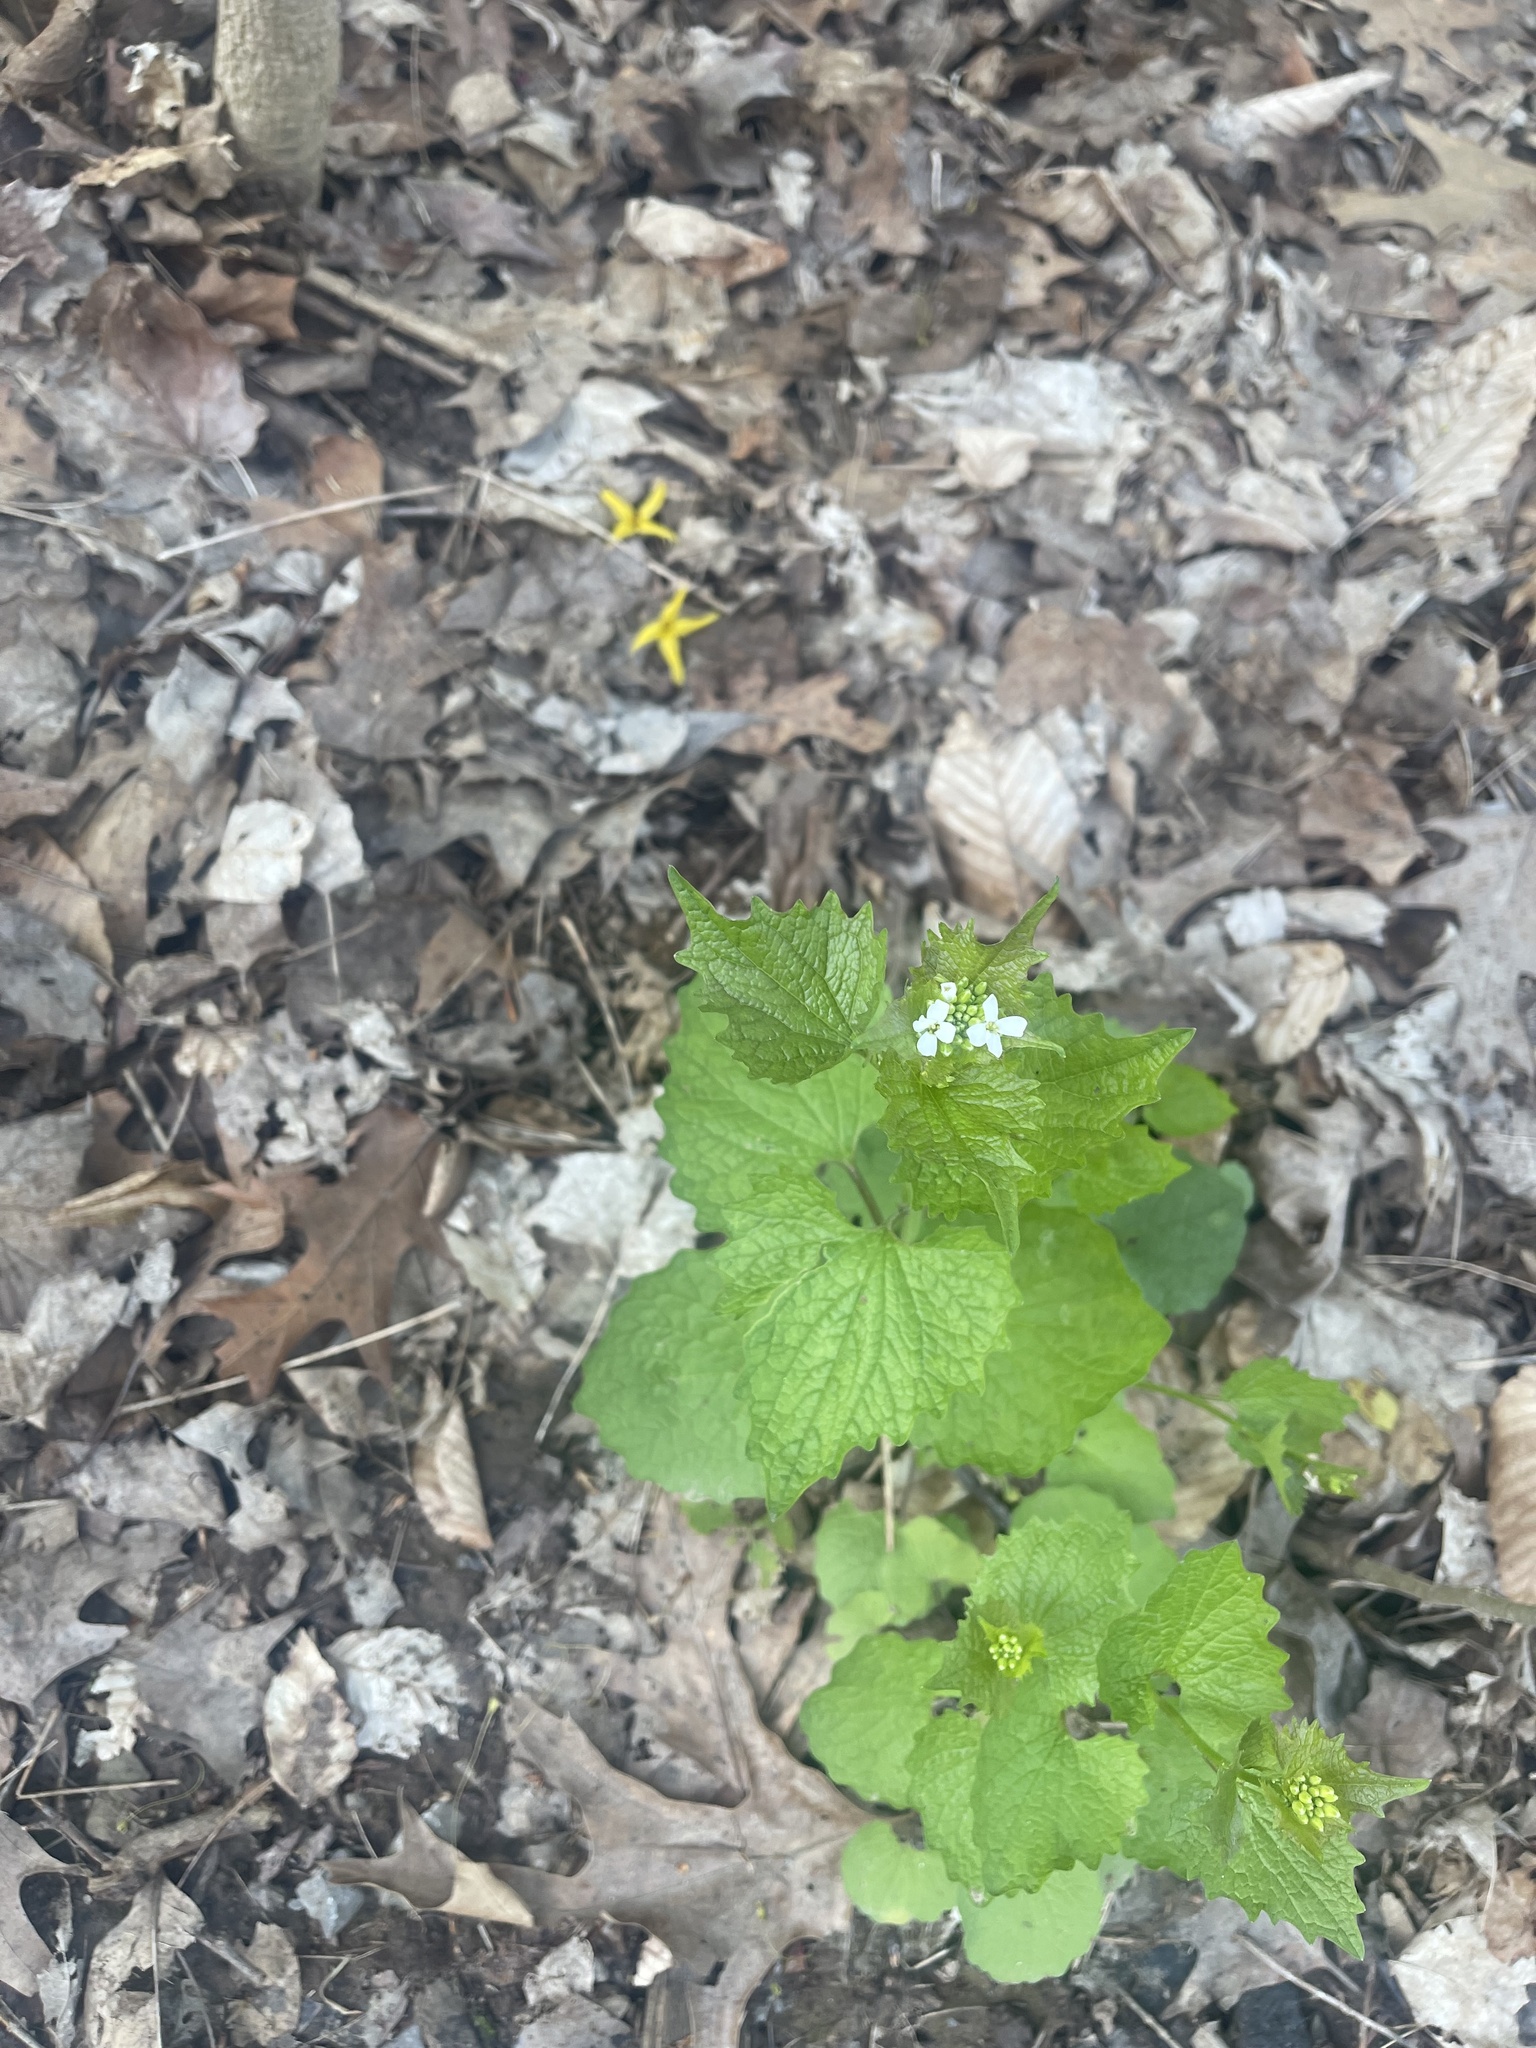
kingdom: Plantae
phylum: Tracheophyta
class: Magnoliopsida
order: Brassicales
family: Brassicaceae
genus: Alliaria
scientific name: Alliaria petiolata
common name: Garlic mustard
